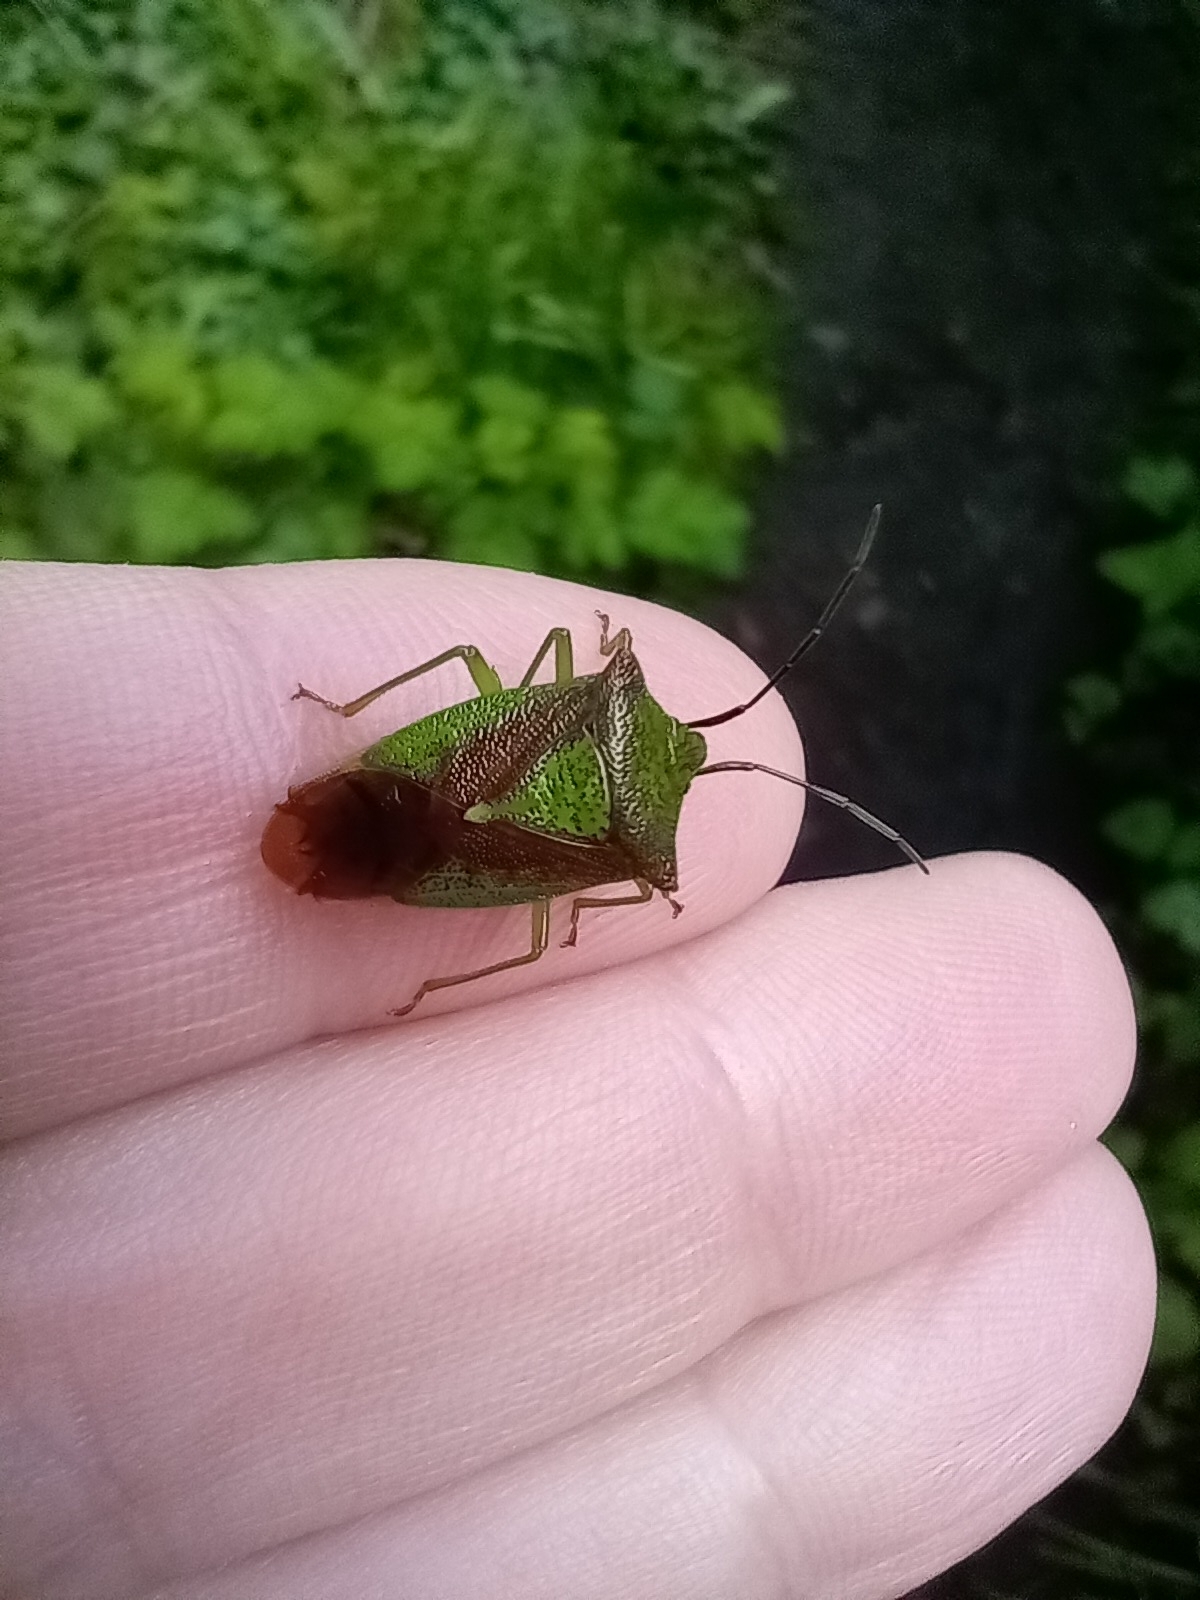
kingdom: Animalia
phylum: Arthropoda
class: Insecta
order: Hemiptera
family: Acanthosomatidae
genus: Acanthosoma
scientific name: Acanthosoma haemorrhoidale
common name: Hawthorn shieldbug
